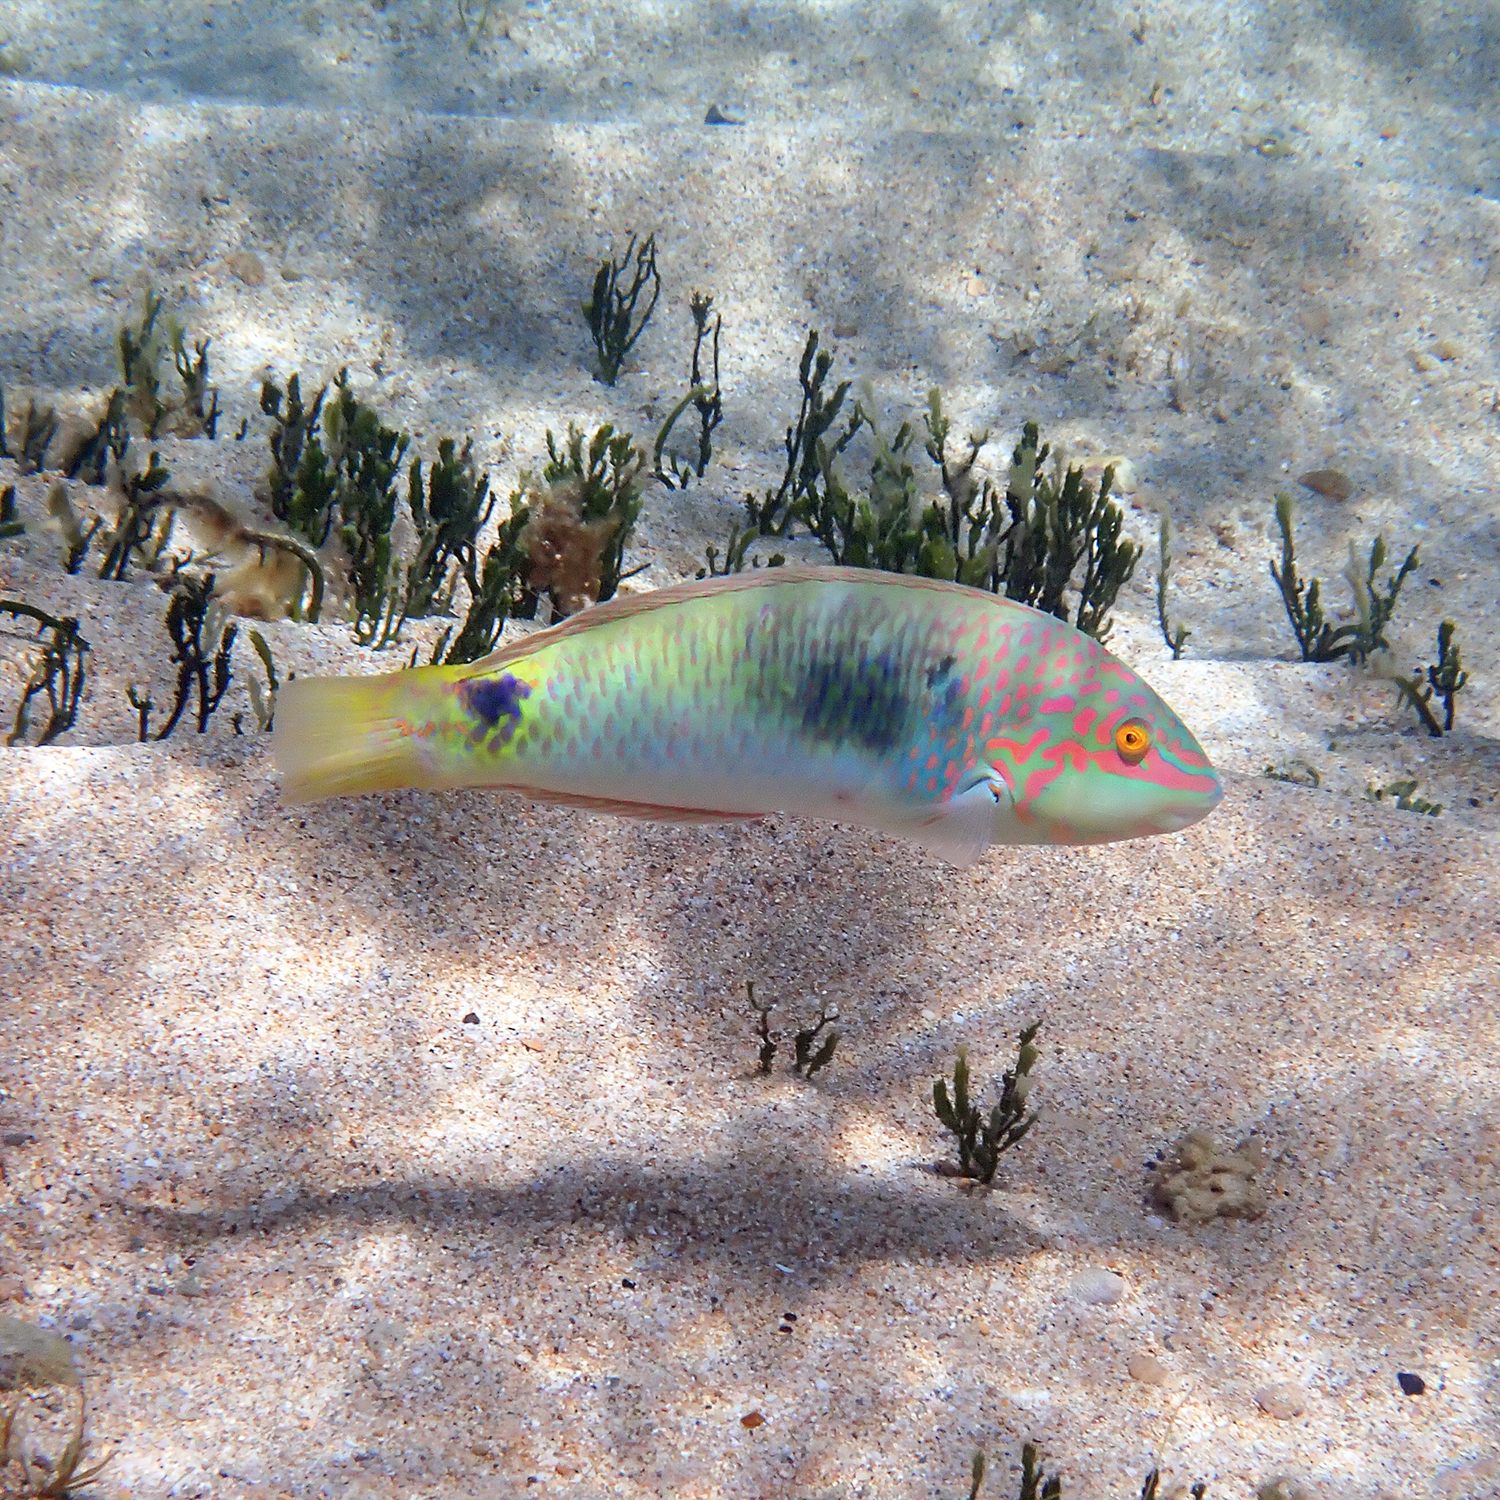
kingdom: Animalia
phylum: Chordata
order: Perciformes
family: Labridae
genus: Halichoeres
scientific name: Halichoeres trimaculatus
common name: Three-spot wrasse
